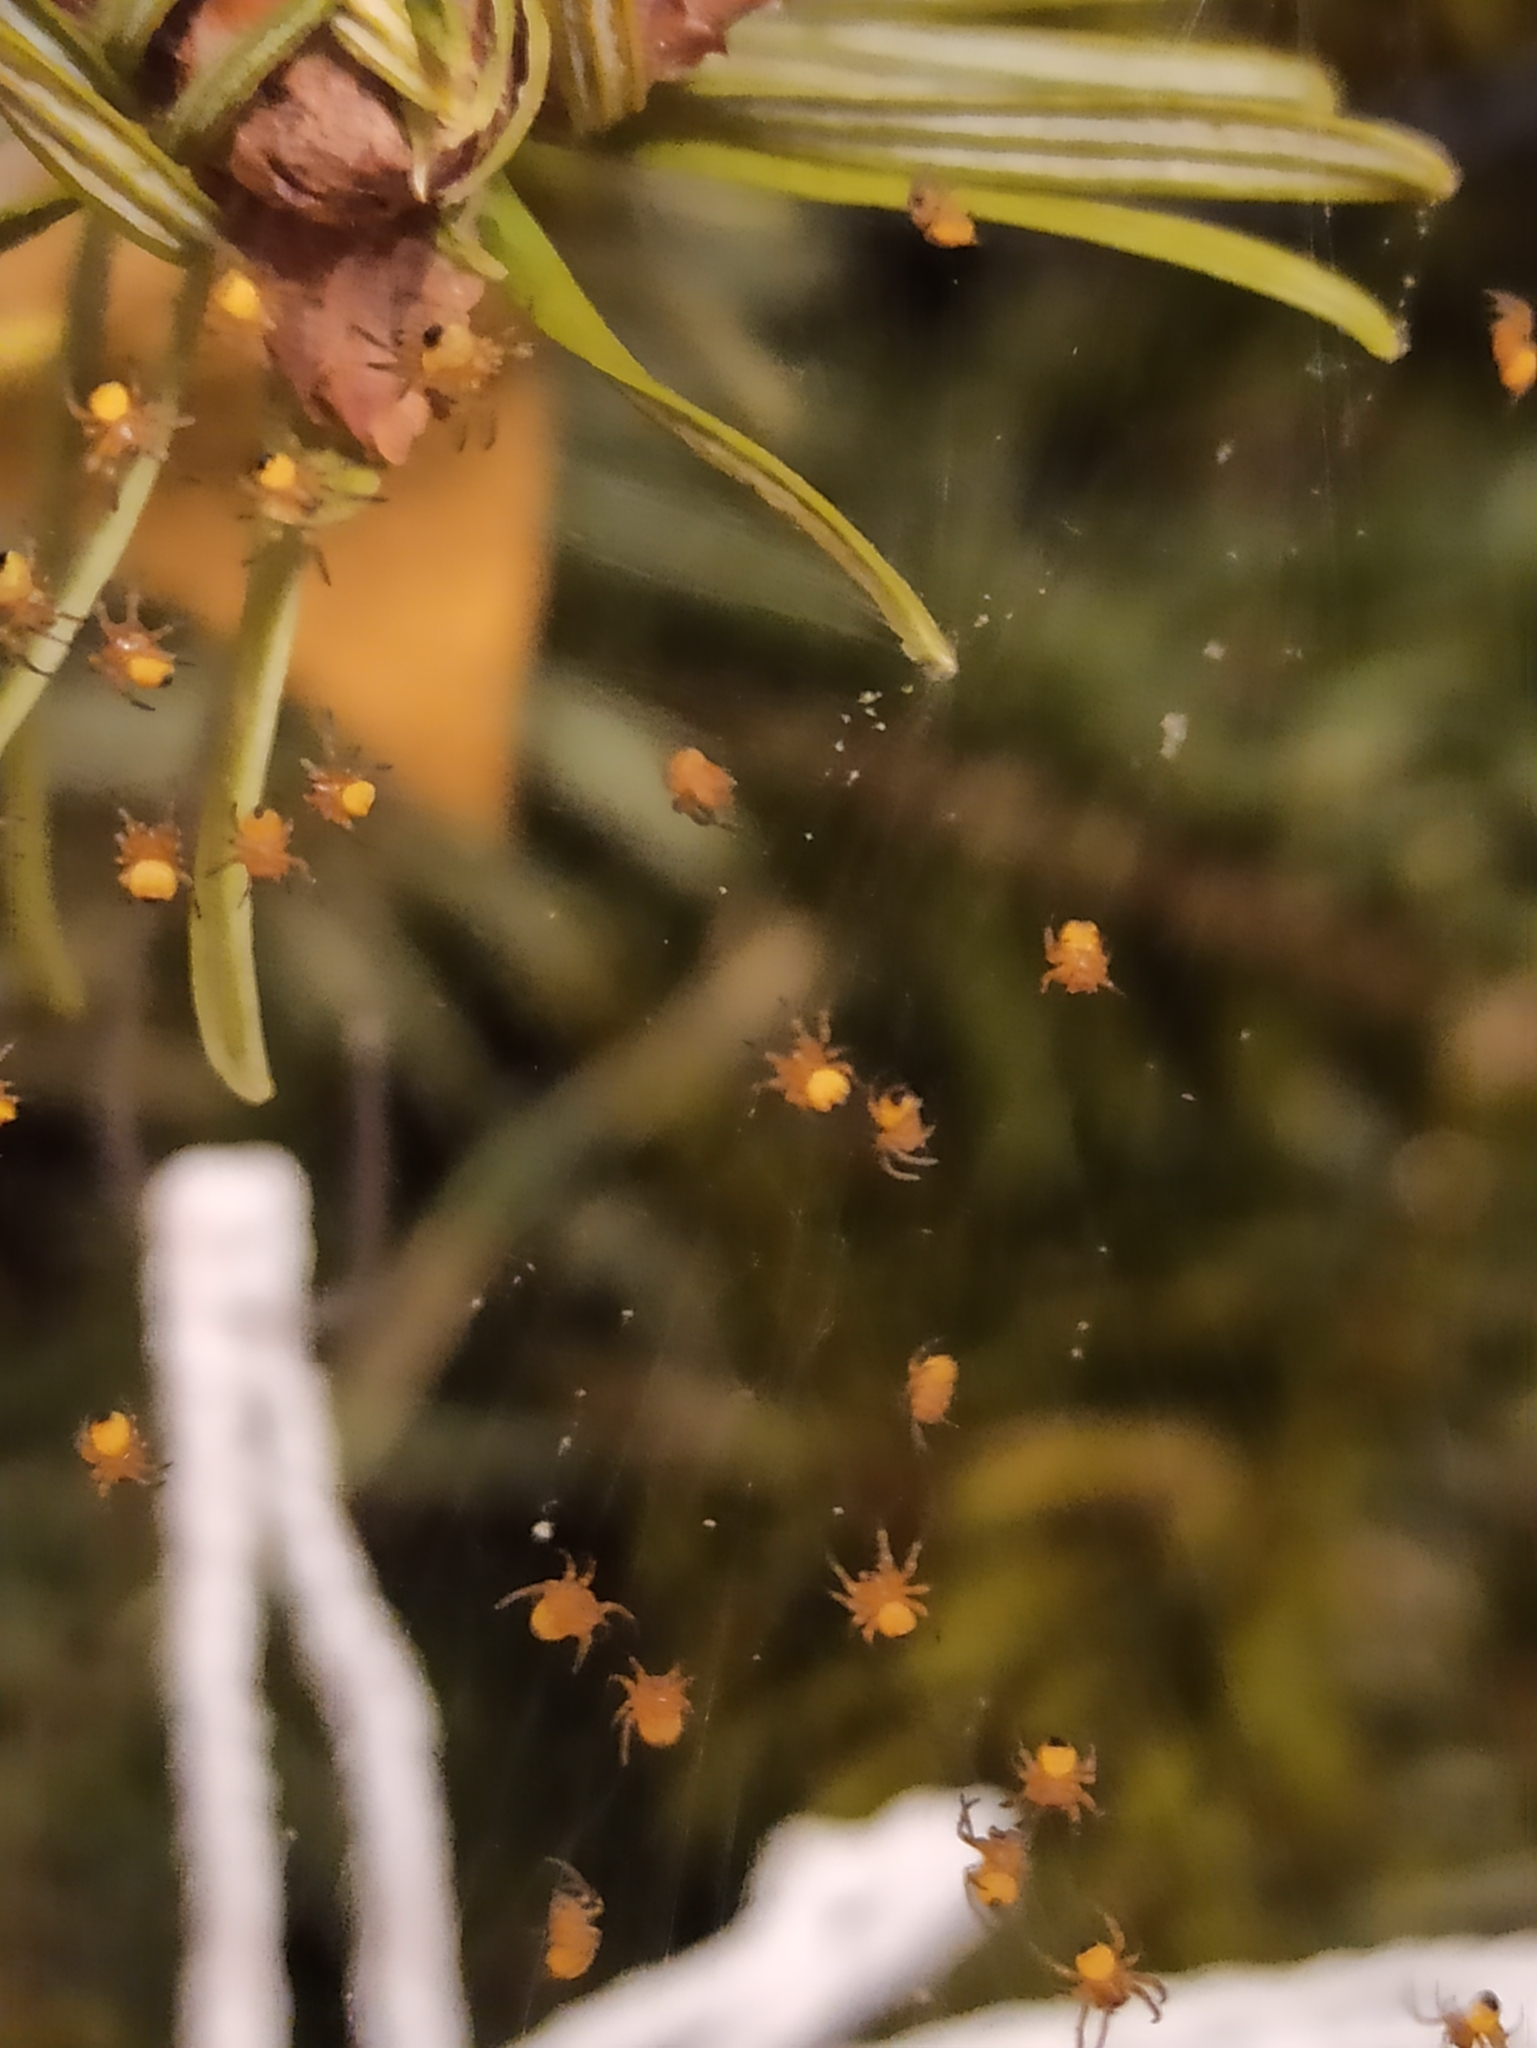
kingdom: Animalia
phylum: Arthropoda
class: Arachnida
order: Araneae
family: Araneidae
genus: Araneus
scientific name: Araneus diadematus
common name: Cross orbweaver
